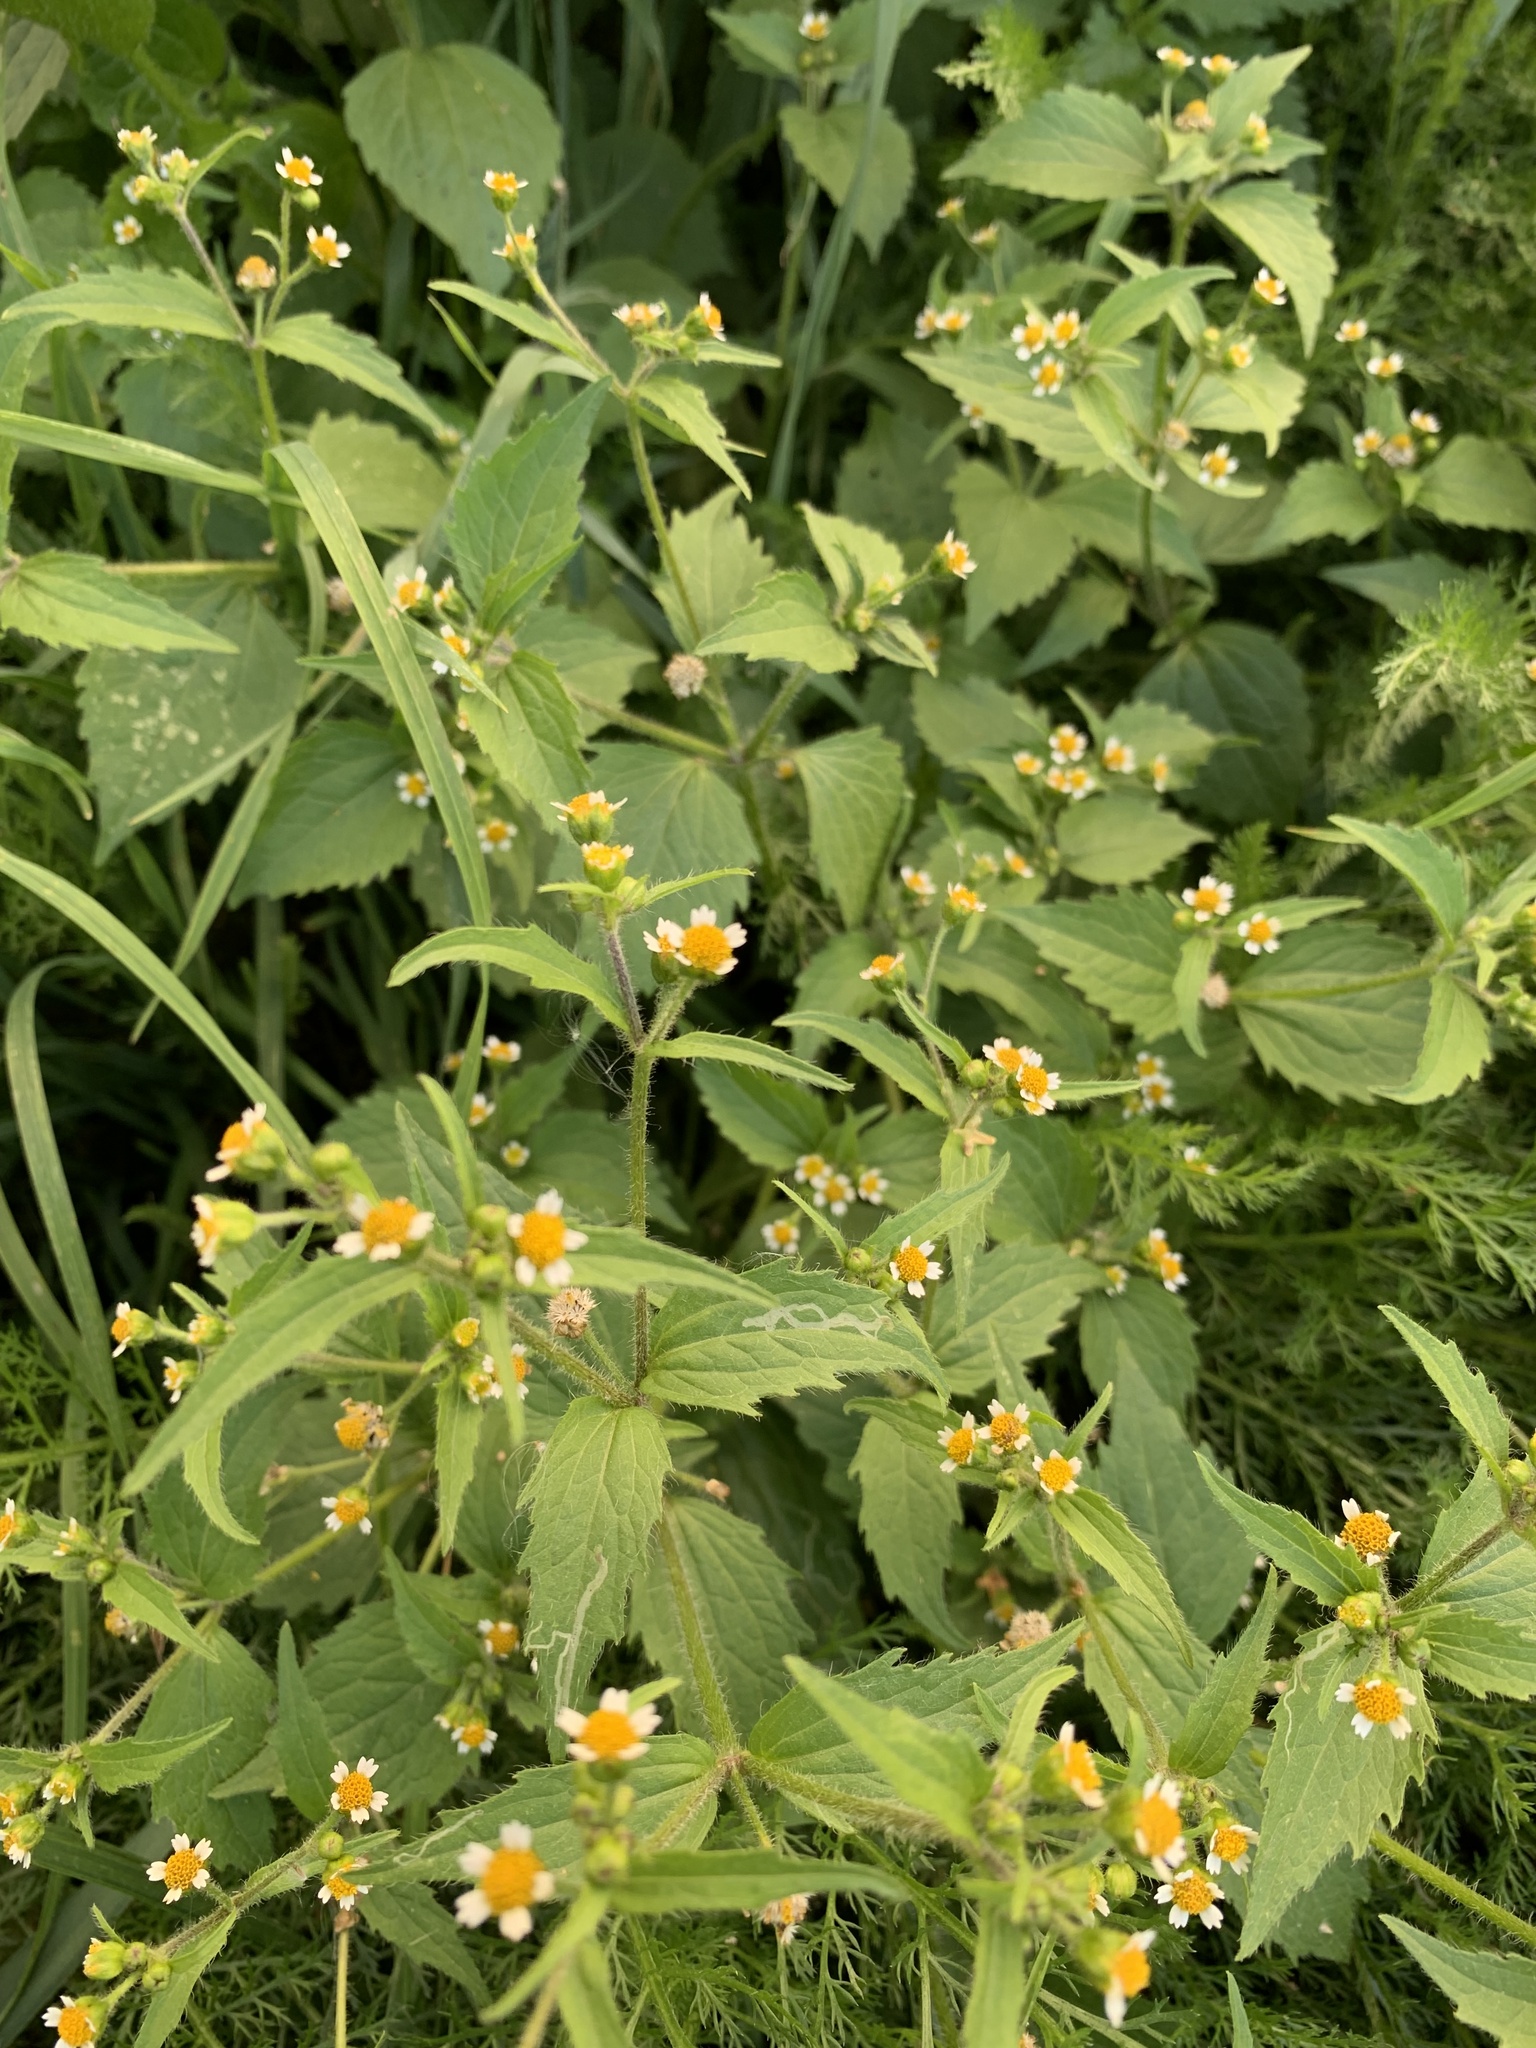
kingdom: Plantae
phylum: Tracheophyta
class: Magnoliopsida
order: Asterales
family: Asteraceae
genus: Galinsoga
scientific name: Galinsoga quadriradiata
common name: Shaggy soldier
